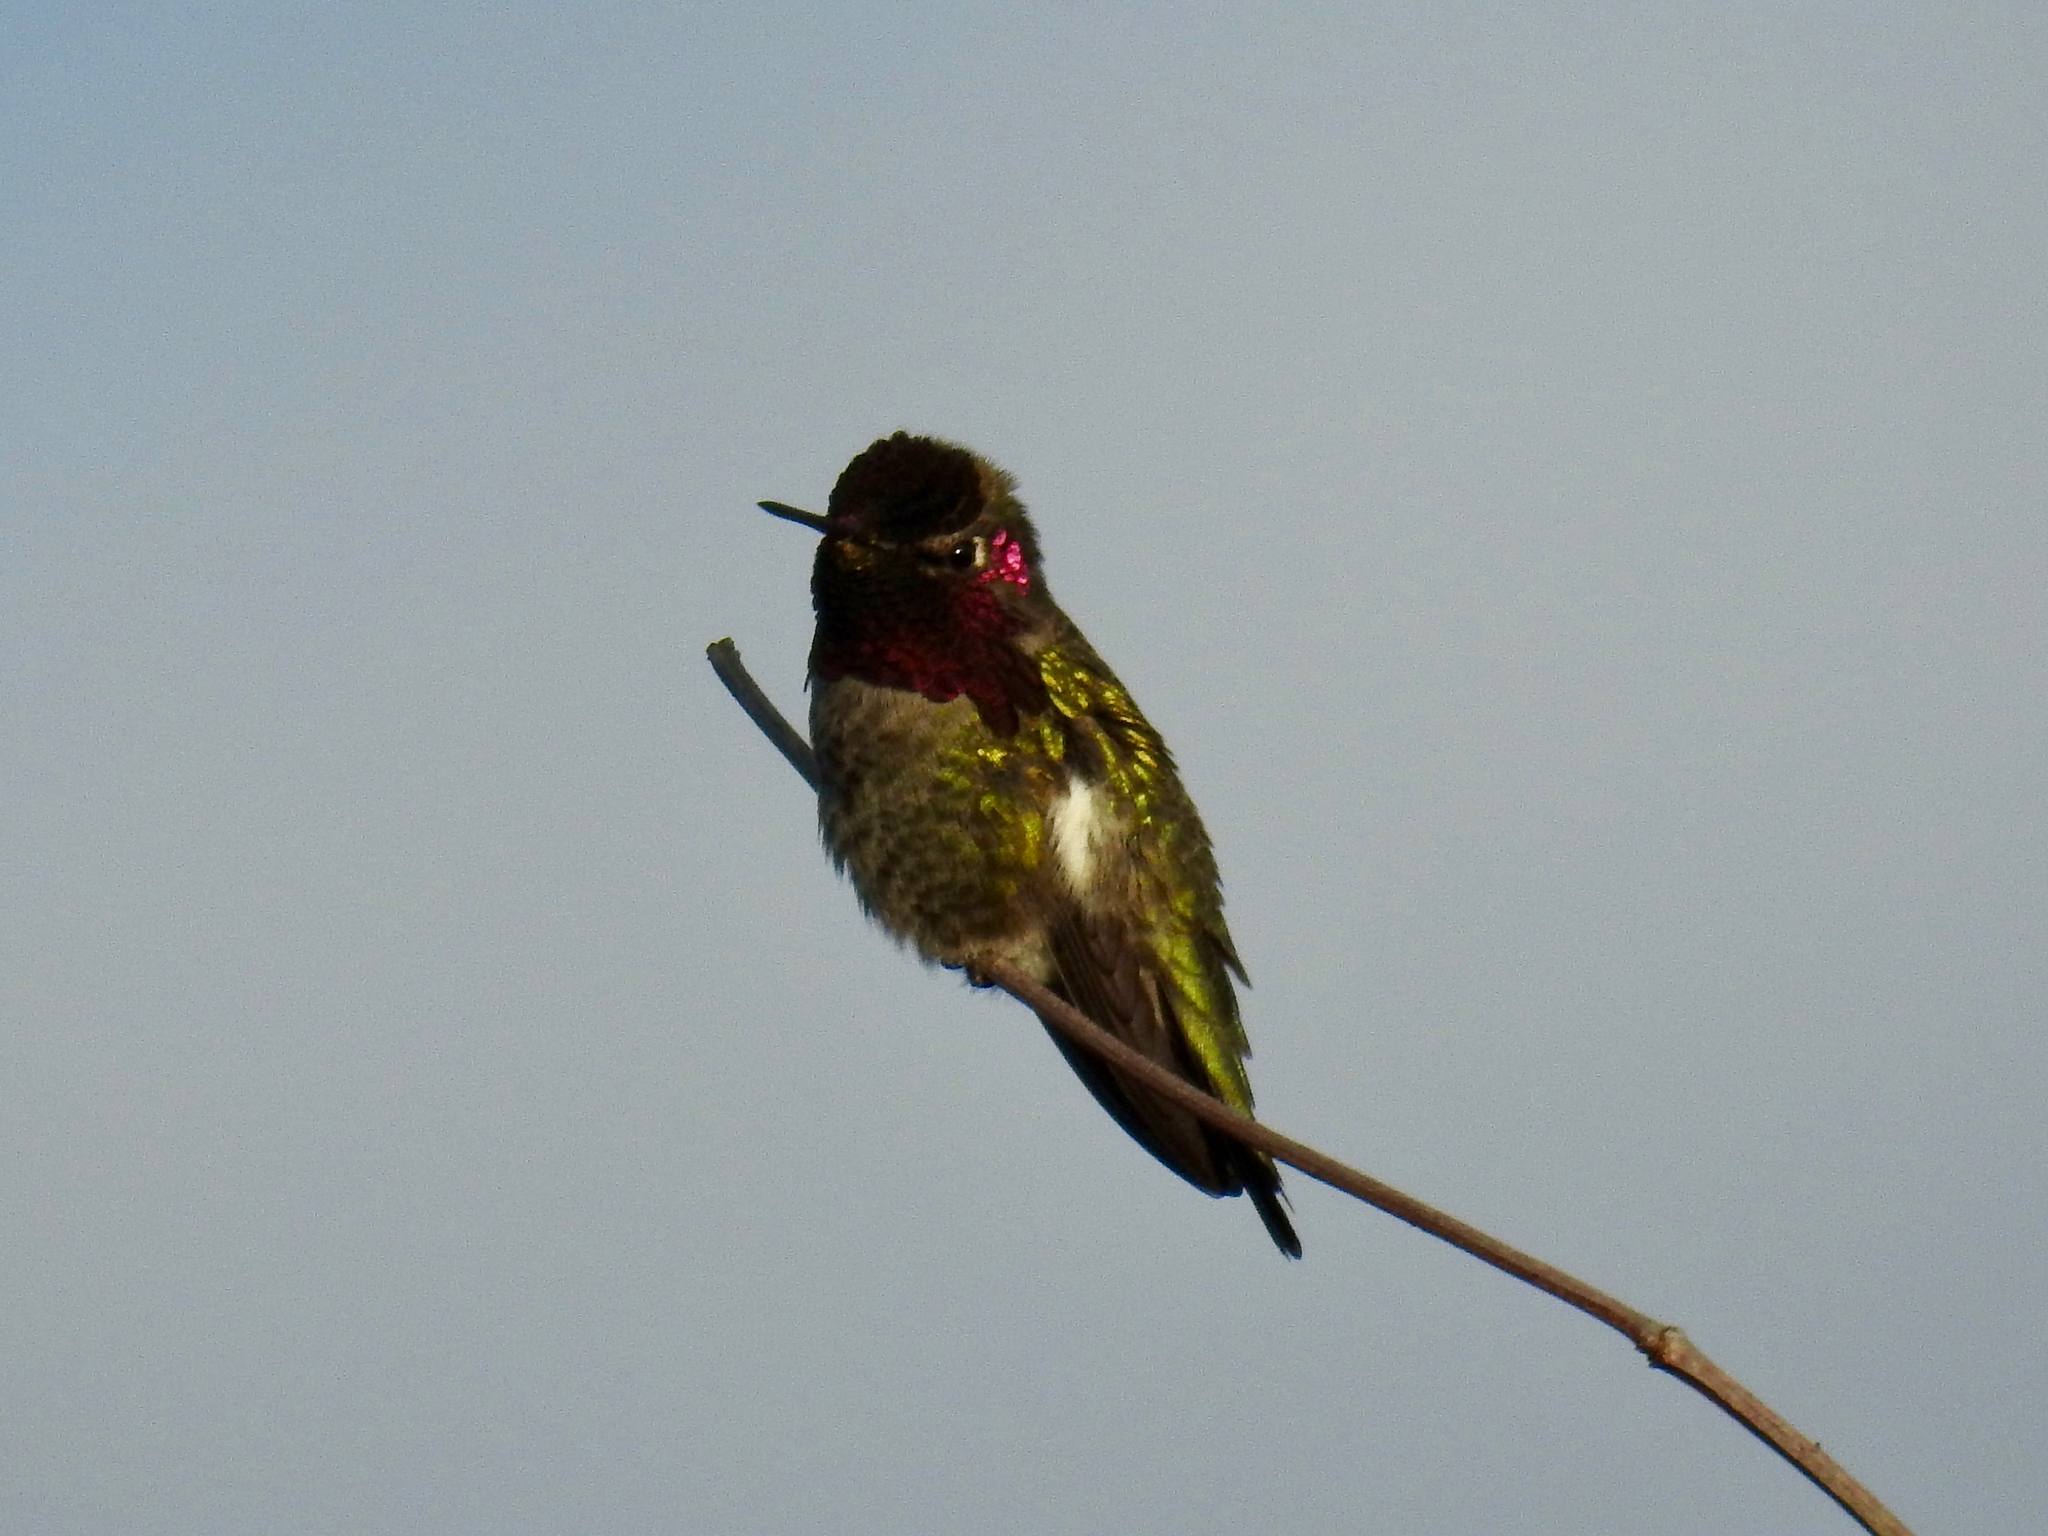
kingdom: Animalia
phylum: Chordata
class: Aves
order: Apodiformes
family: Trochilidae
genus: Calypte
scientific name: Calypte anna
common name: Anna's hummingbird
